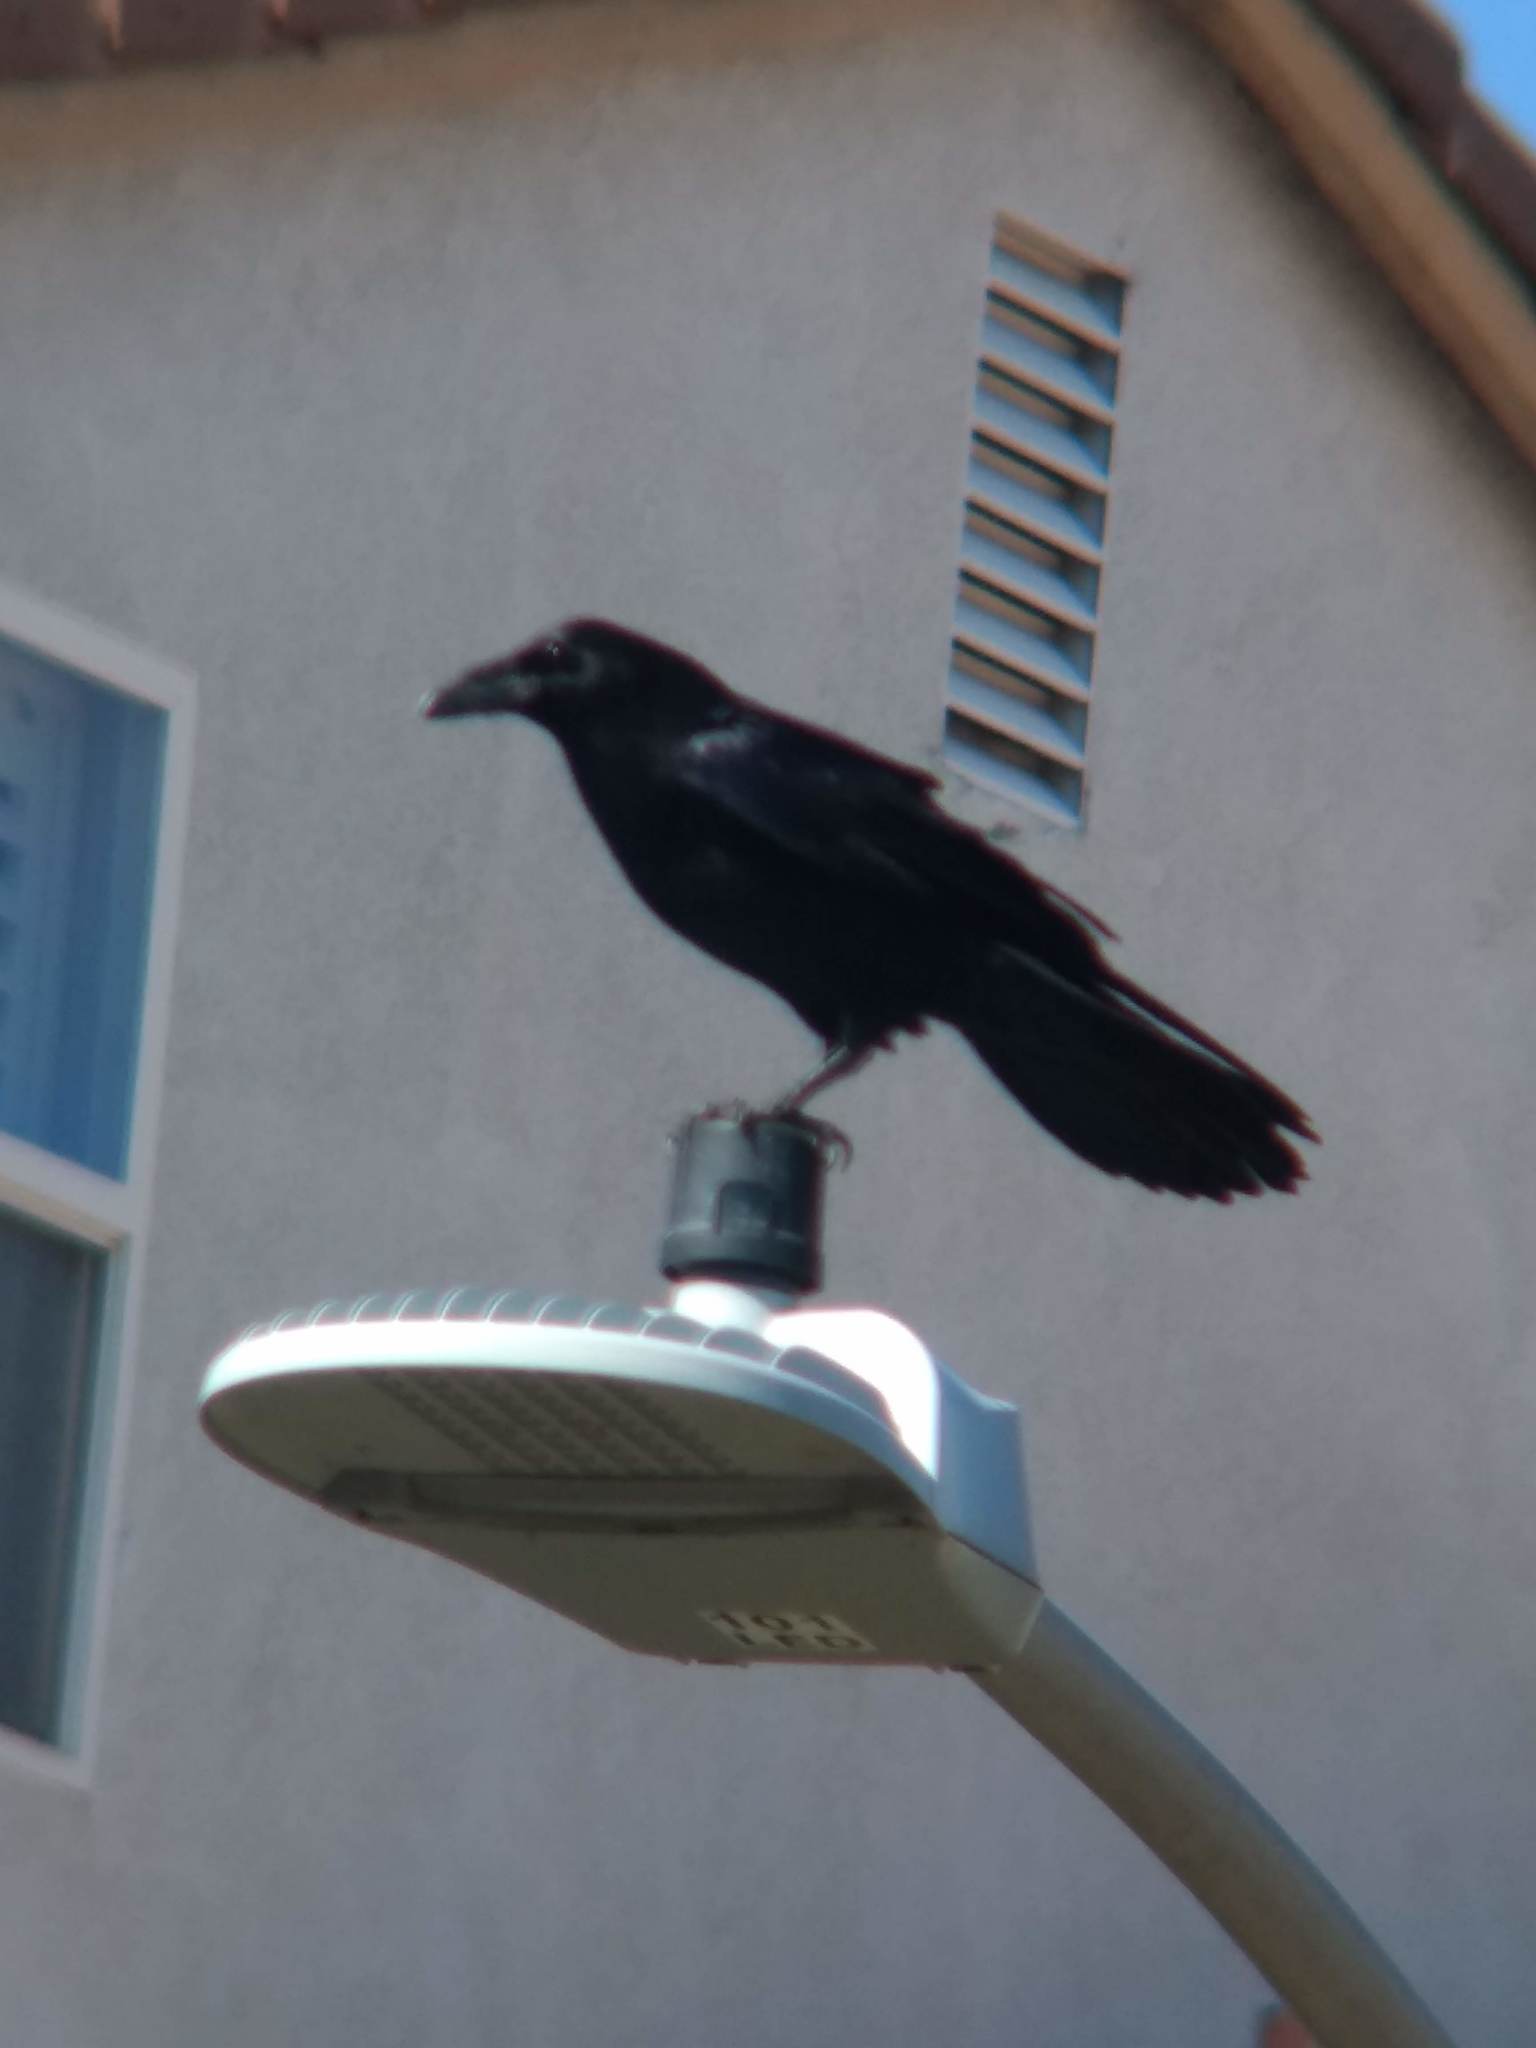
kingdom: Animalia
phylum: Chordata
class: Aves
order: Passeriformes
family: Corvidae
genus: Corvus
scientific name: Corvus corax
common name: Common raven
